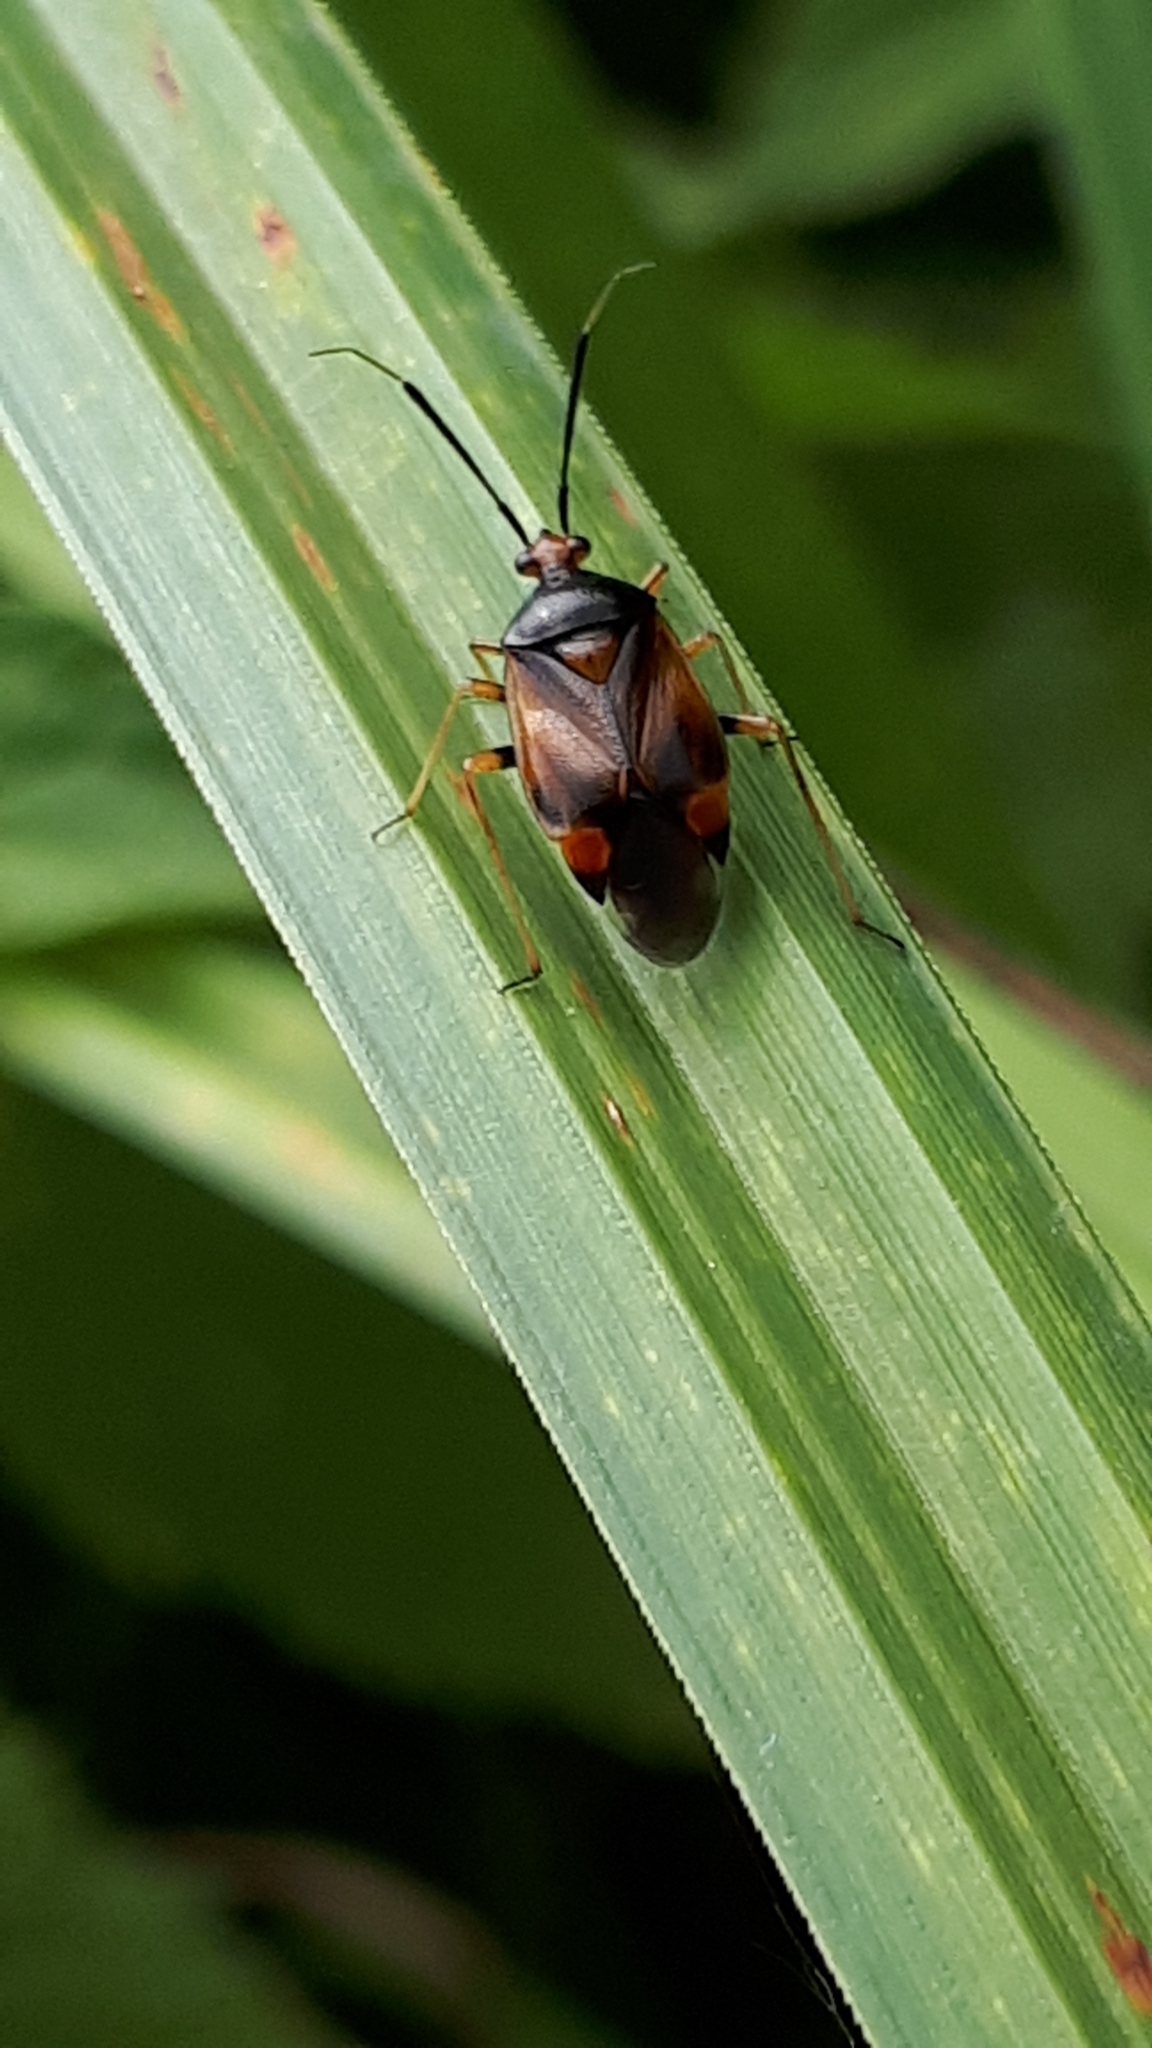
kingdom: Animalia
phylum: Arthropoda
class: Insecta
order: Hemiptera
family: Miridae
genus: Deraeocoris
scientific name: Deraeocoris ruber
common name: Plant bug
